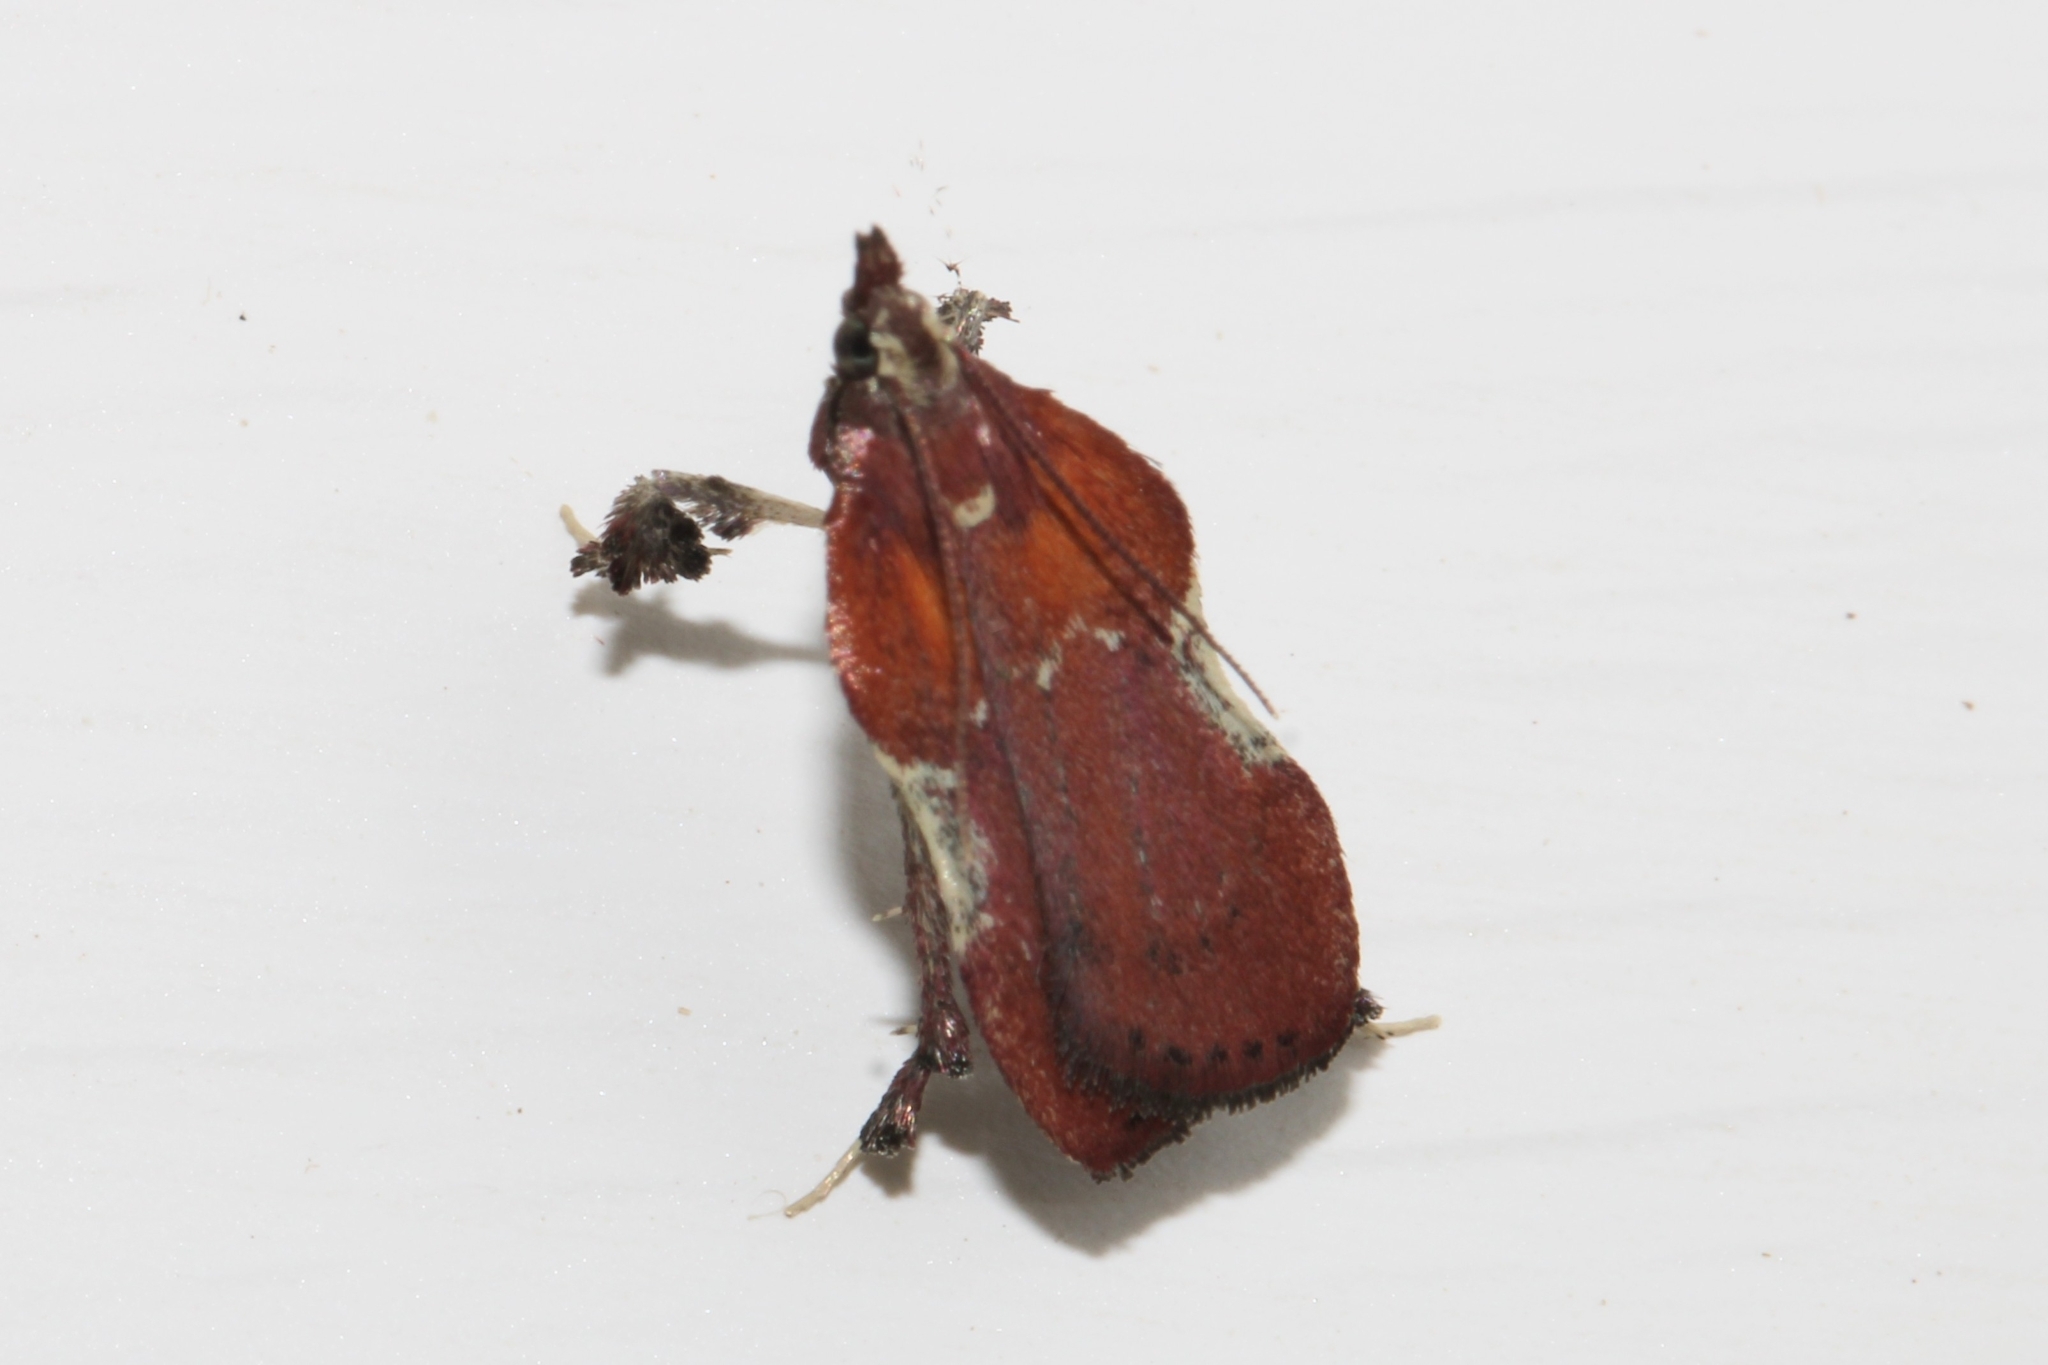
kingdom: Animalia
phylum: Arthropoda
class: Insecta
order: Lepidoptera
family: Pyralidae
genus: Galasa
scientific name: Galasa nigrinodis
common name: Boxwood leaftier moth
